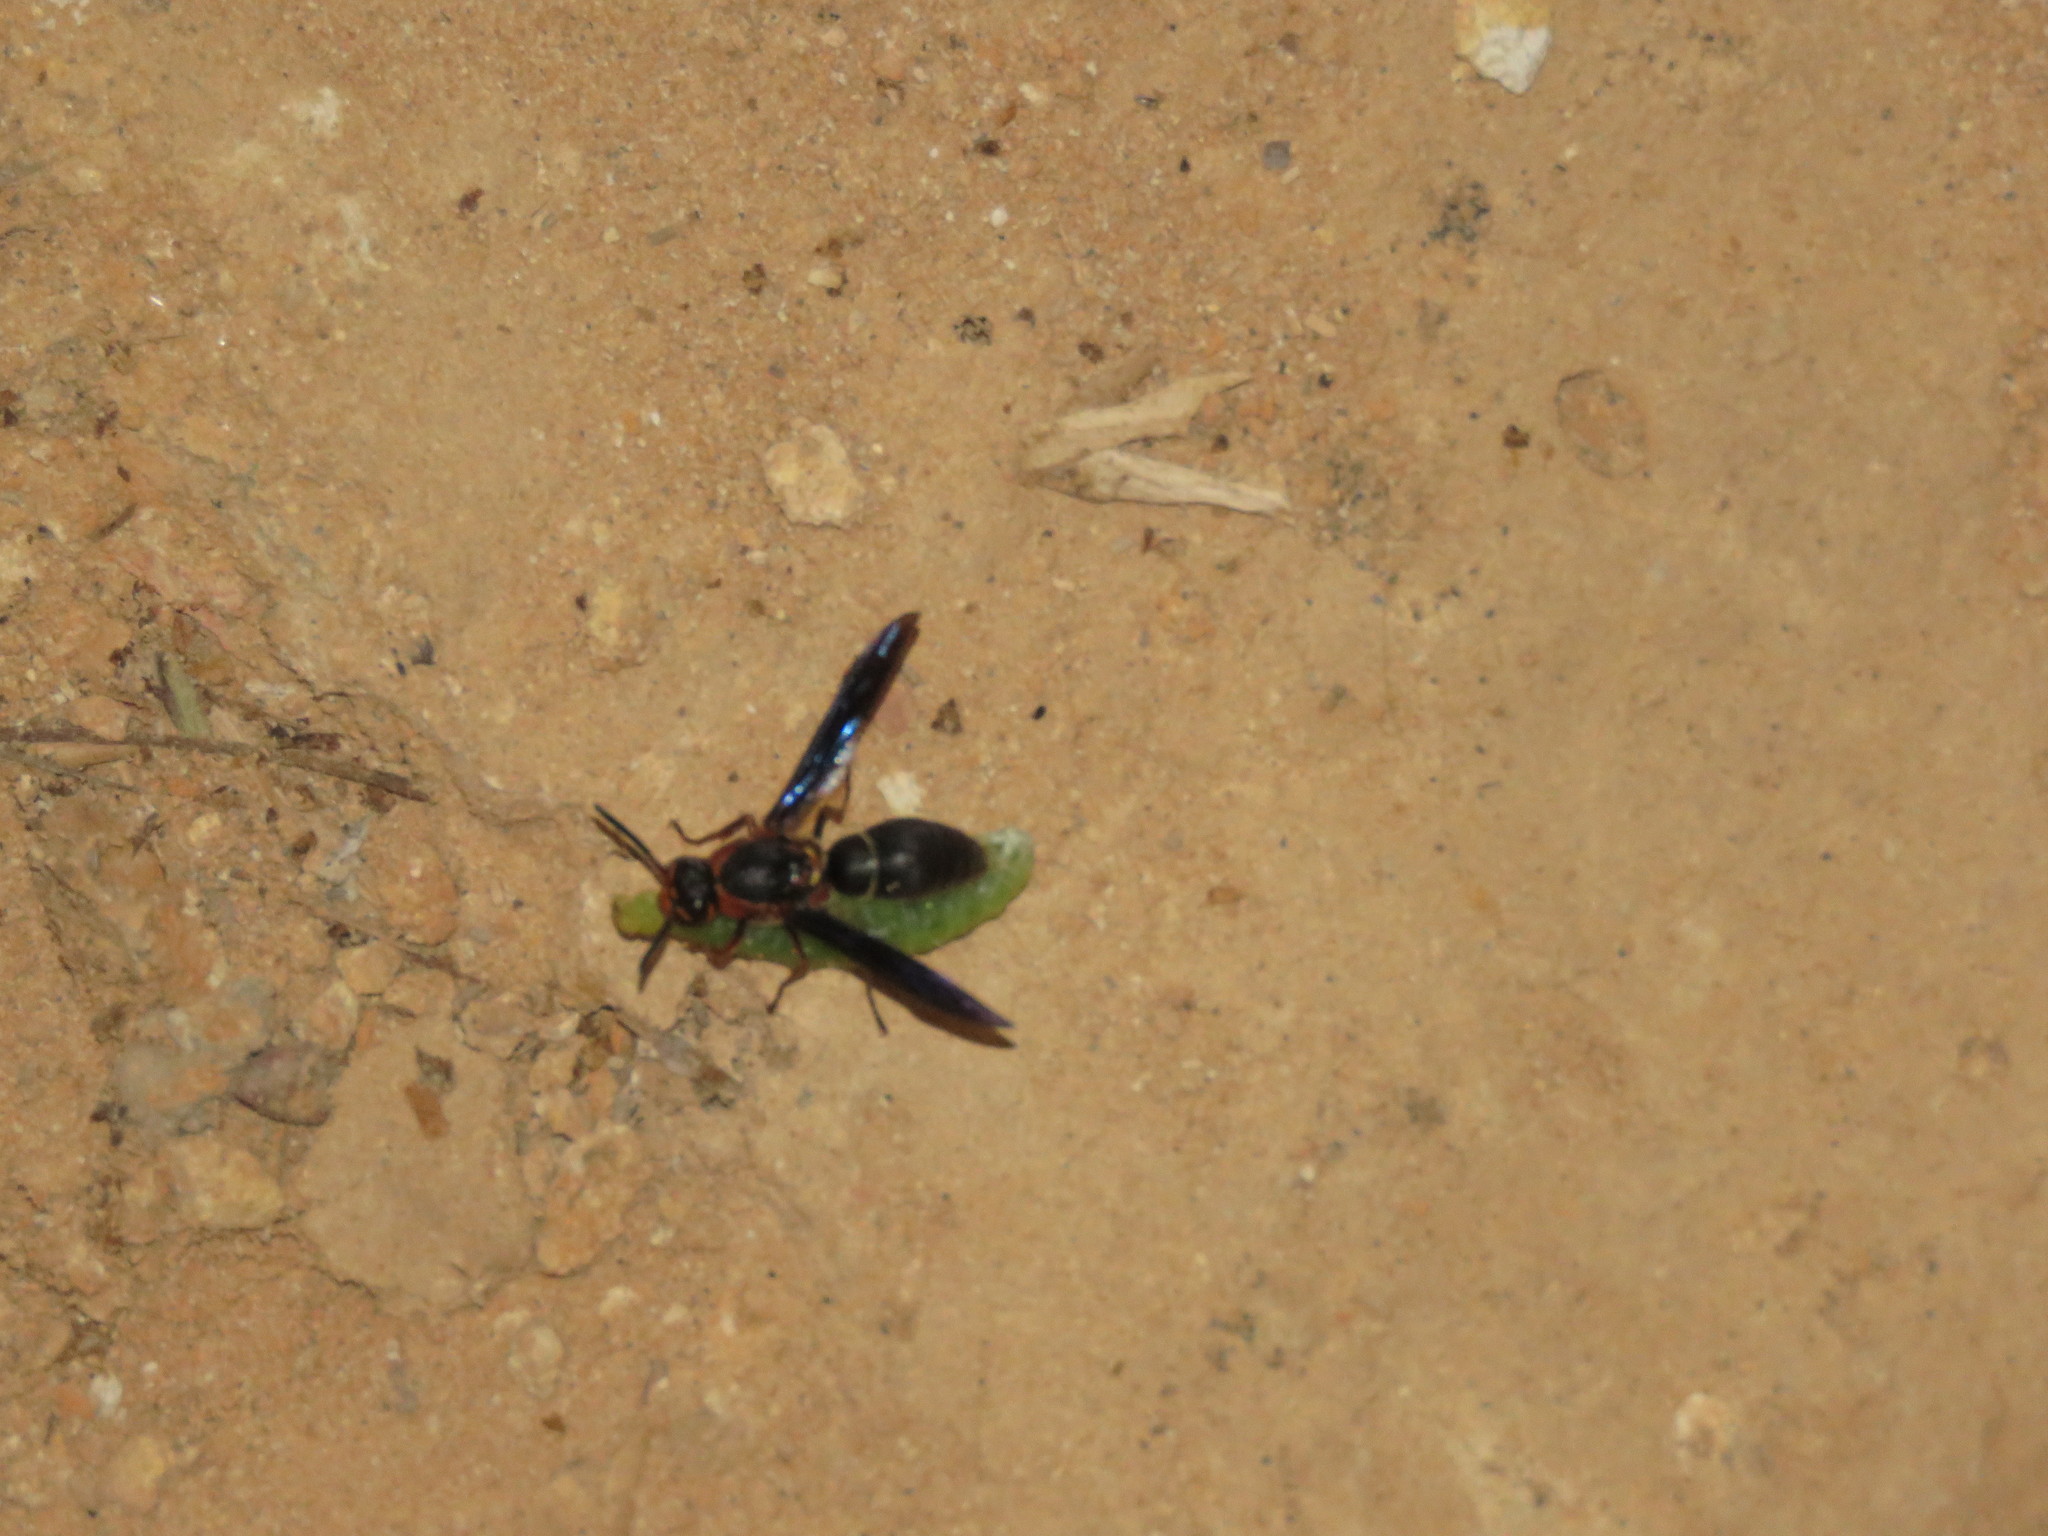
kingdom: Animalia
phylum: Arthropoda
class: Insecta
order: Hymenoptera
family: Eumenidae
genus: Montezumia
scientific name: Montezumia nigriceps
